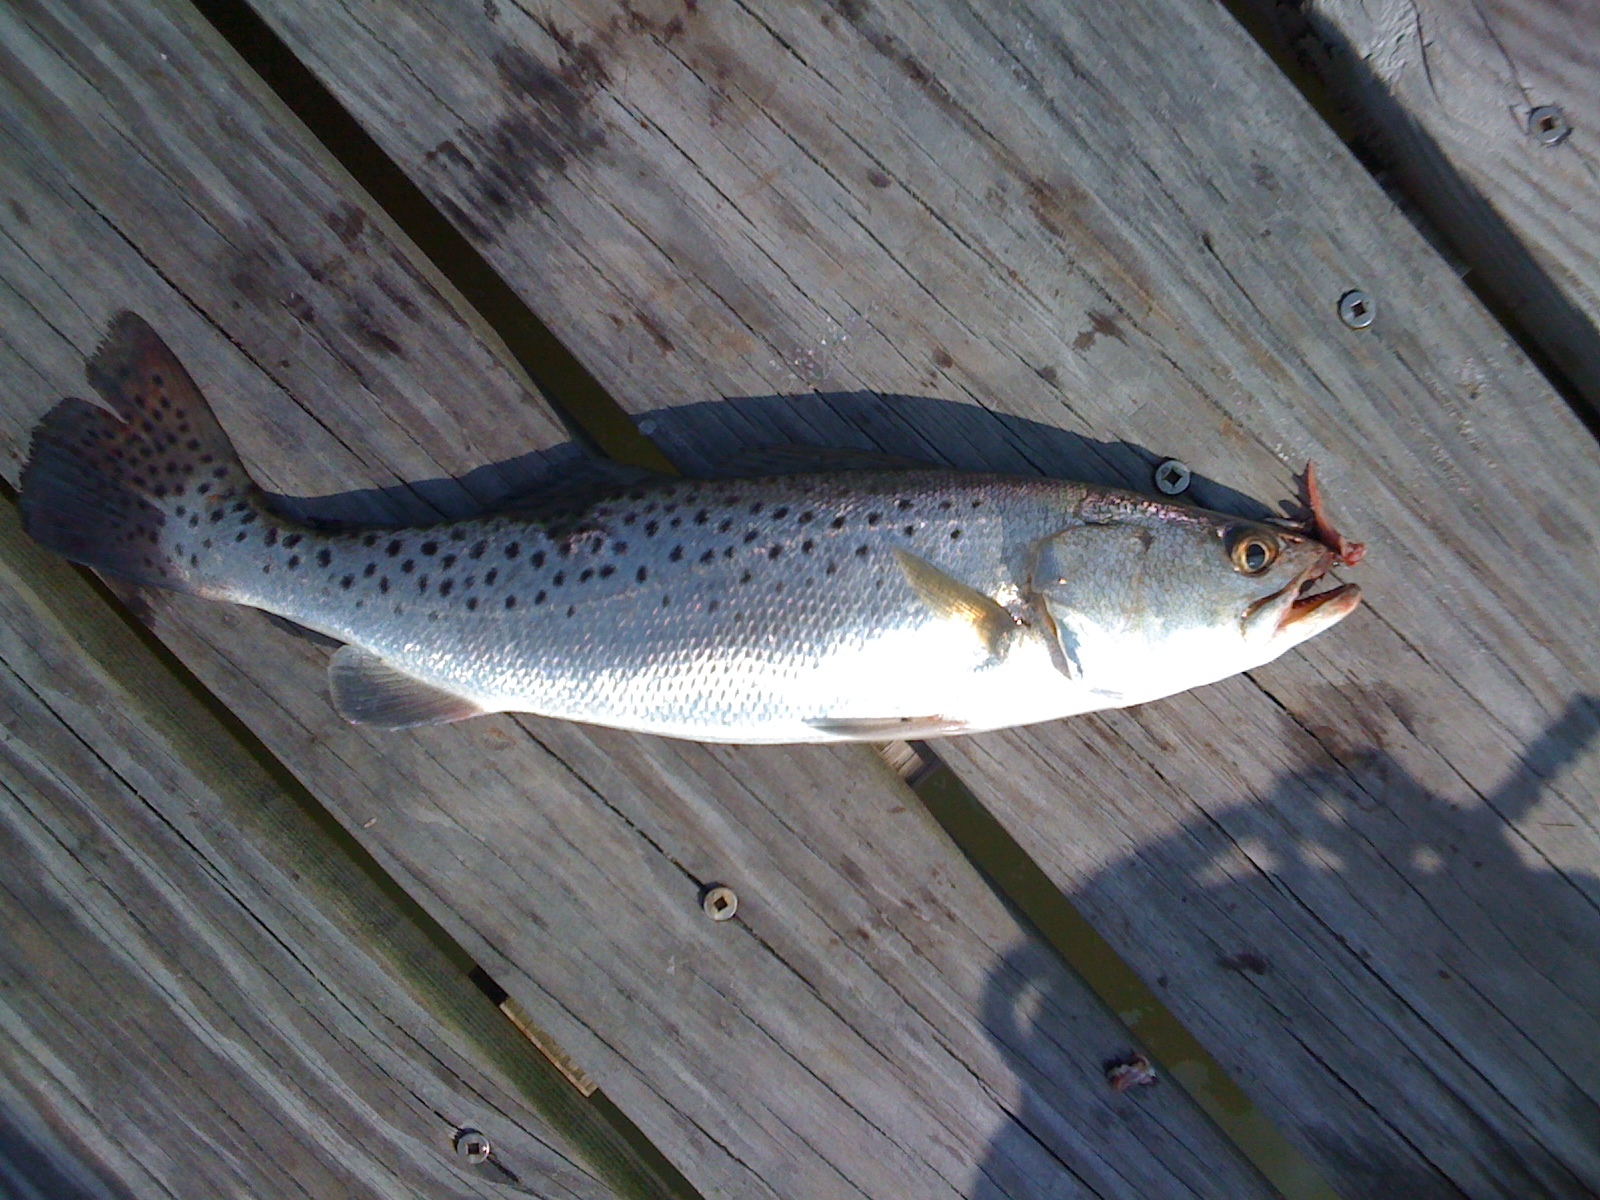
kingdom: Animalia
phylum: Chordata
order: Perciformes
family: Sciaenidae
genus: Cynoscion
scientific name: Cynoscion nebulosus
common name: Spotted seatrout
